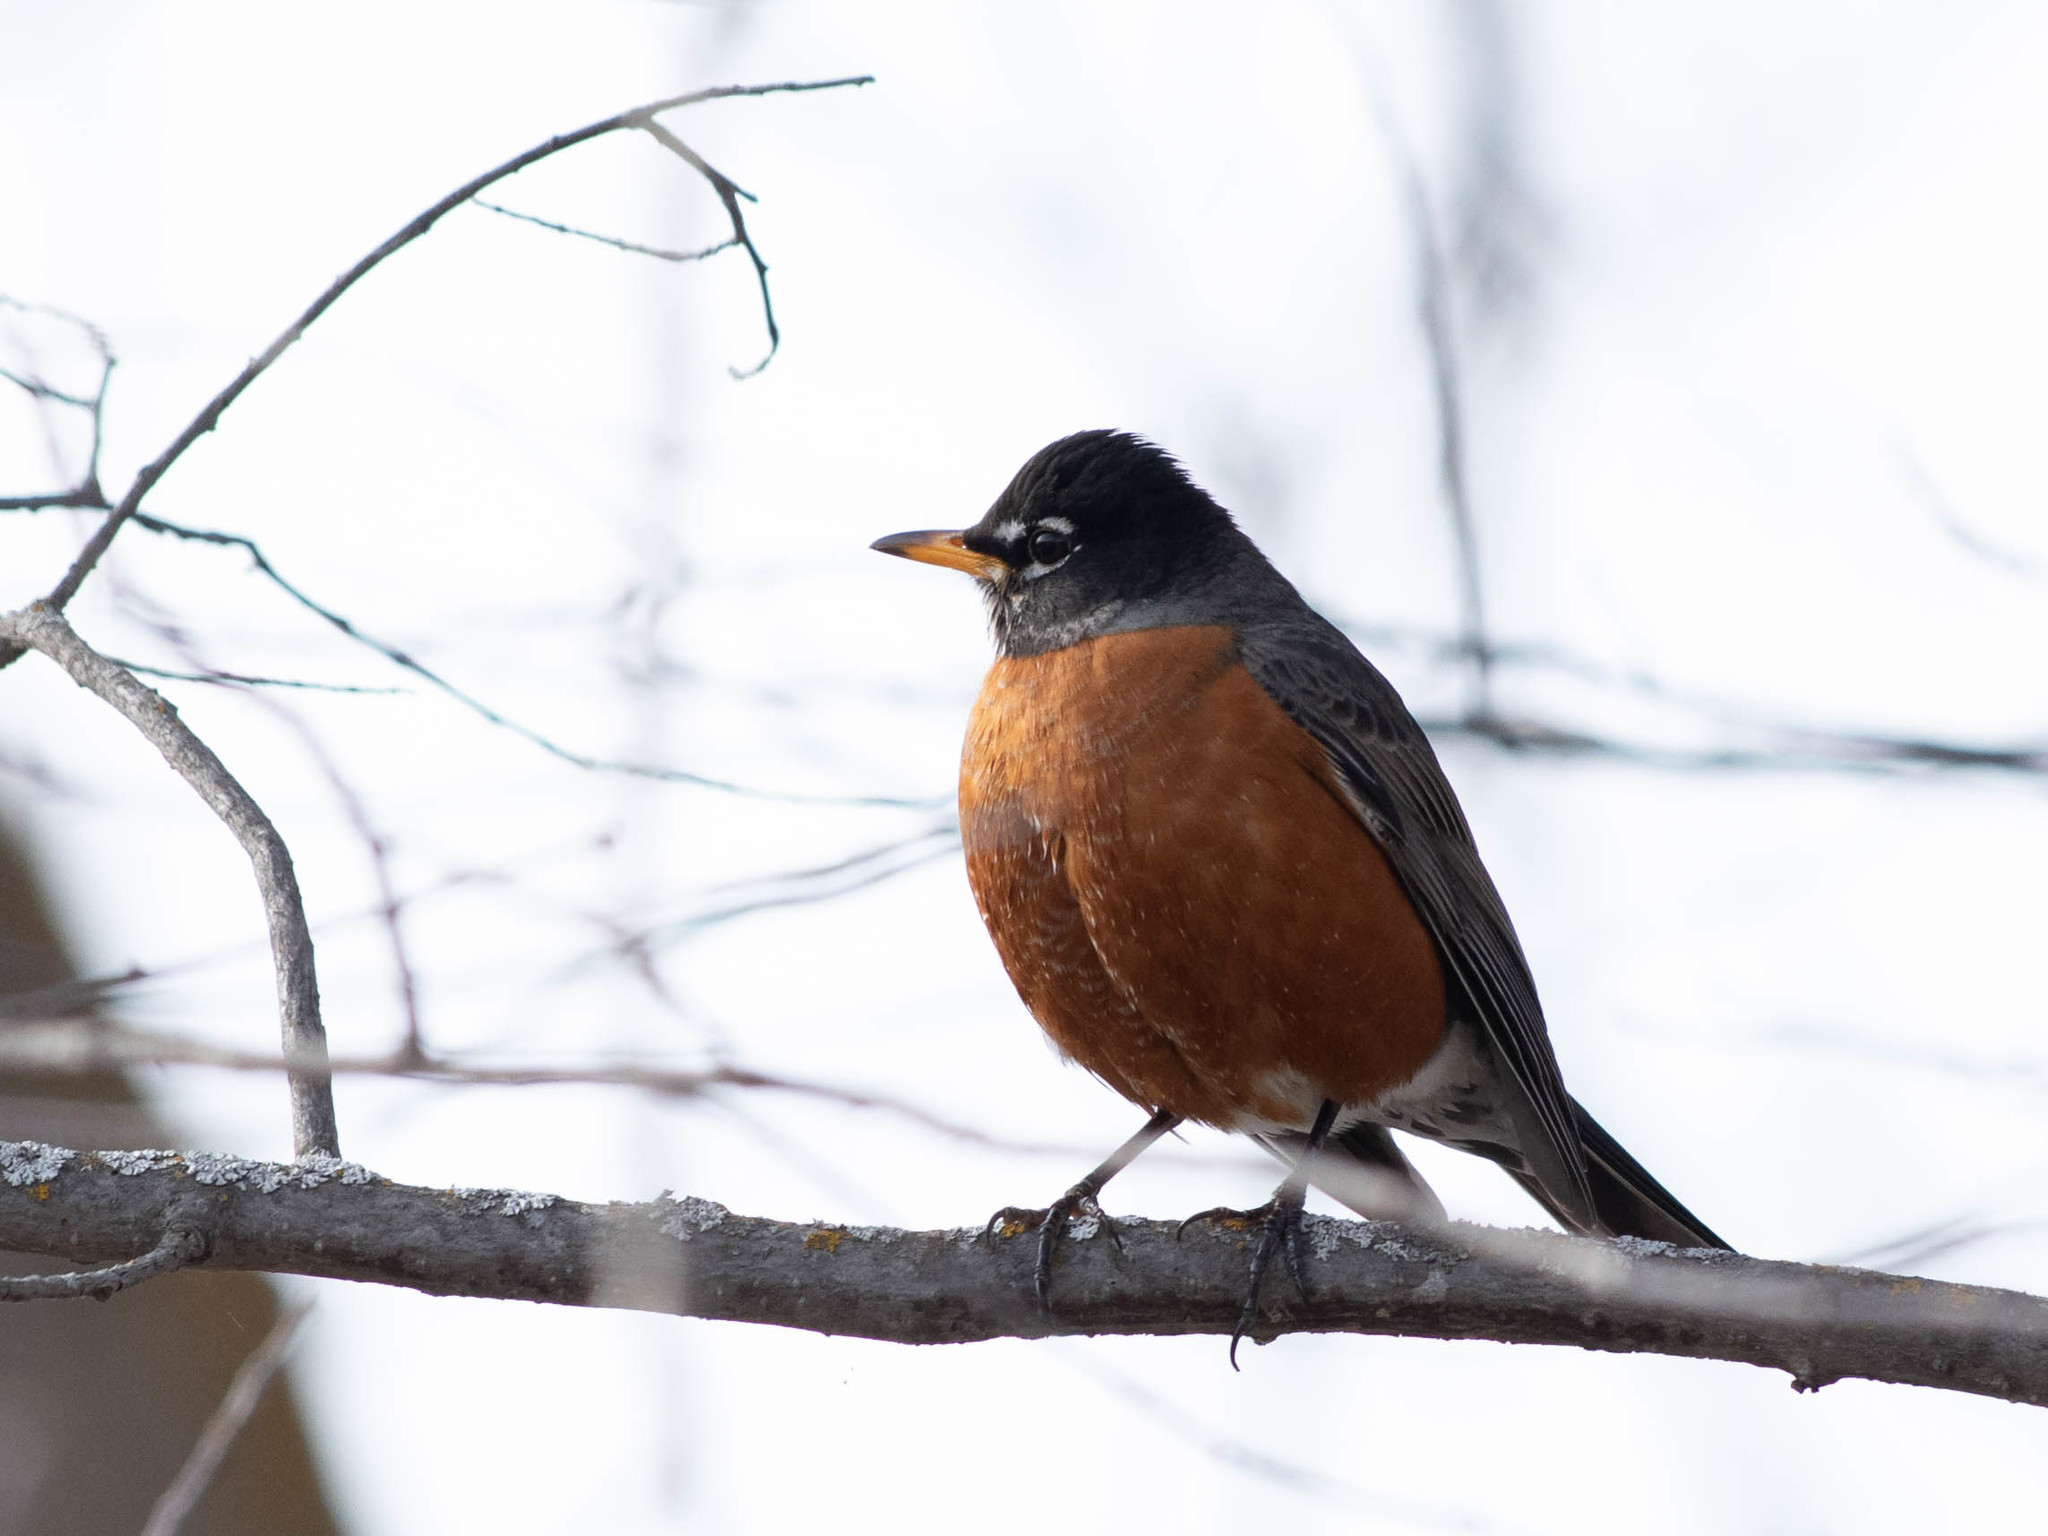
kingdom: Animalia
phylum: Chordata
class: Aves
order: Passeriformes
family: Turdidae
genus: Turdus
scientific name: Turdus migratorius
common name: American robin
